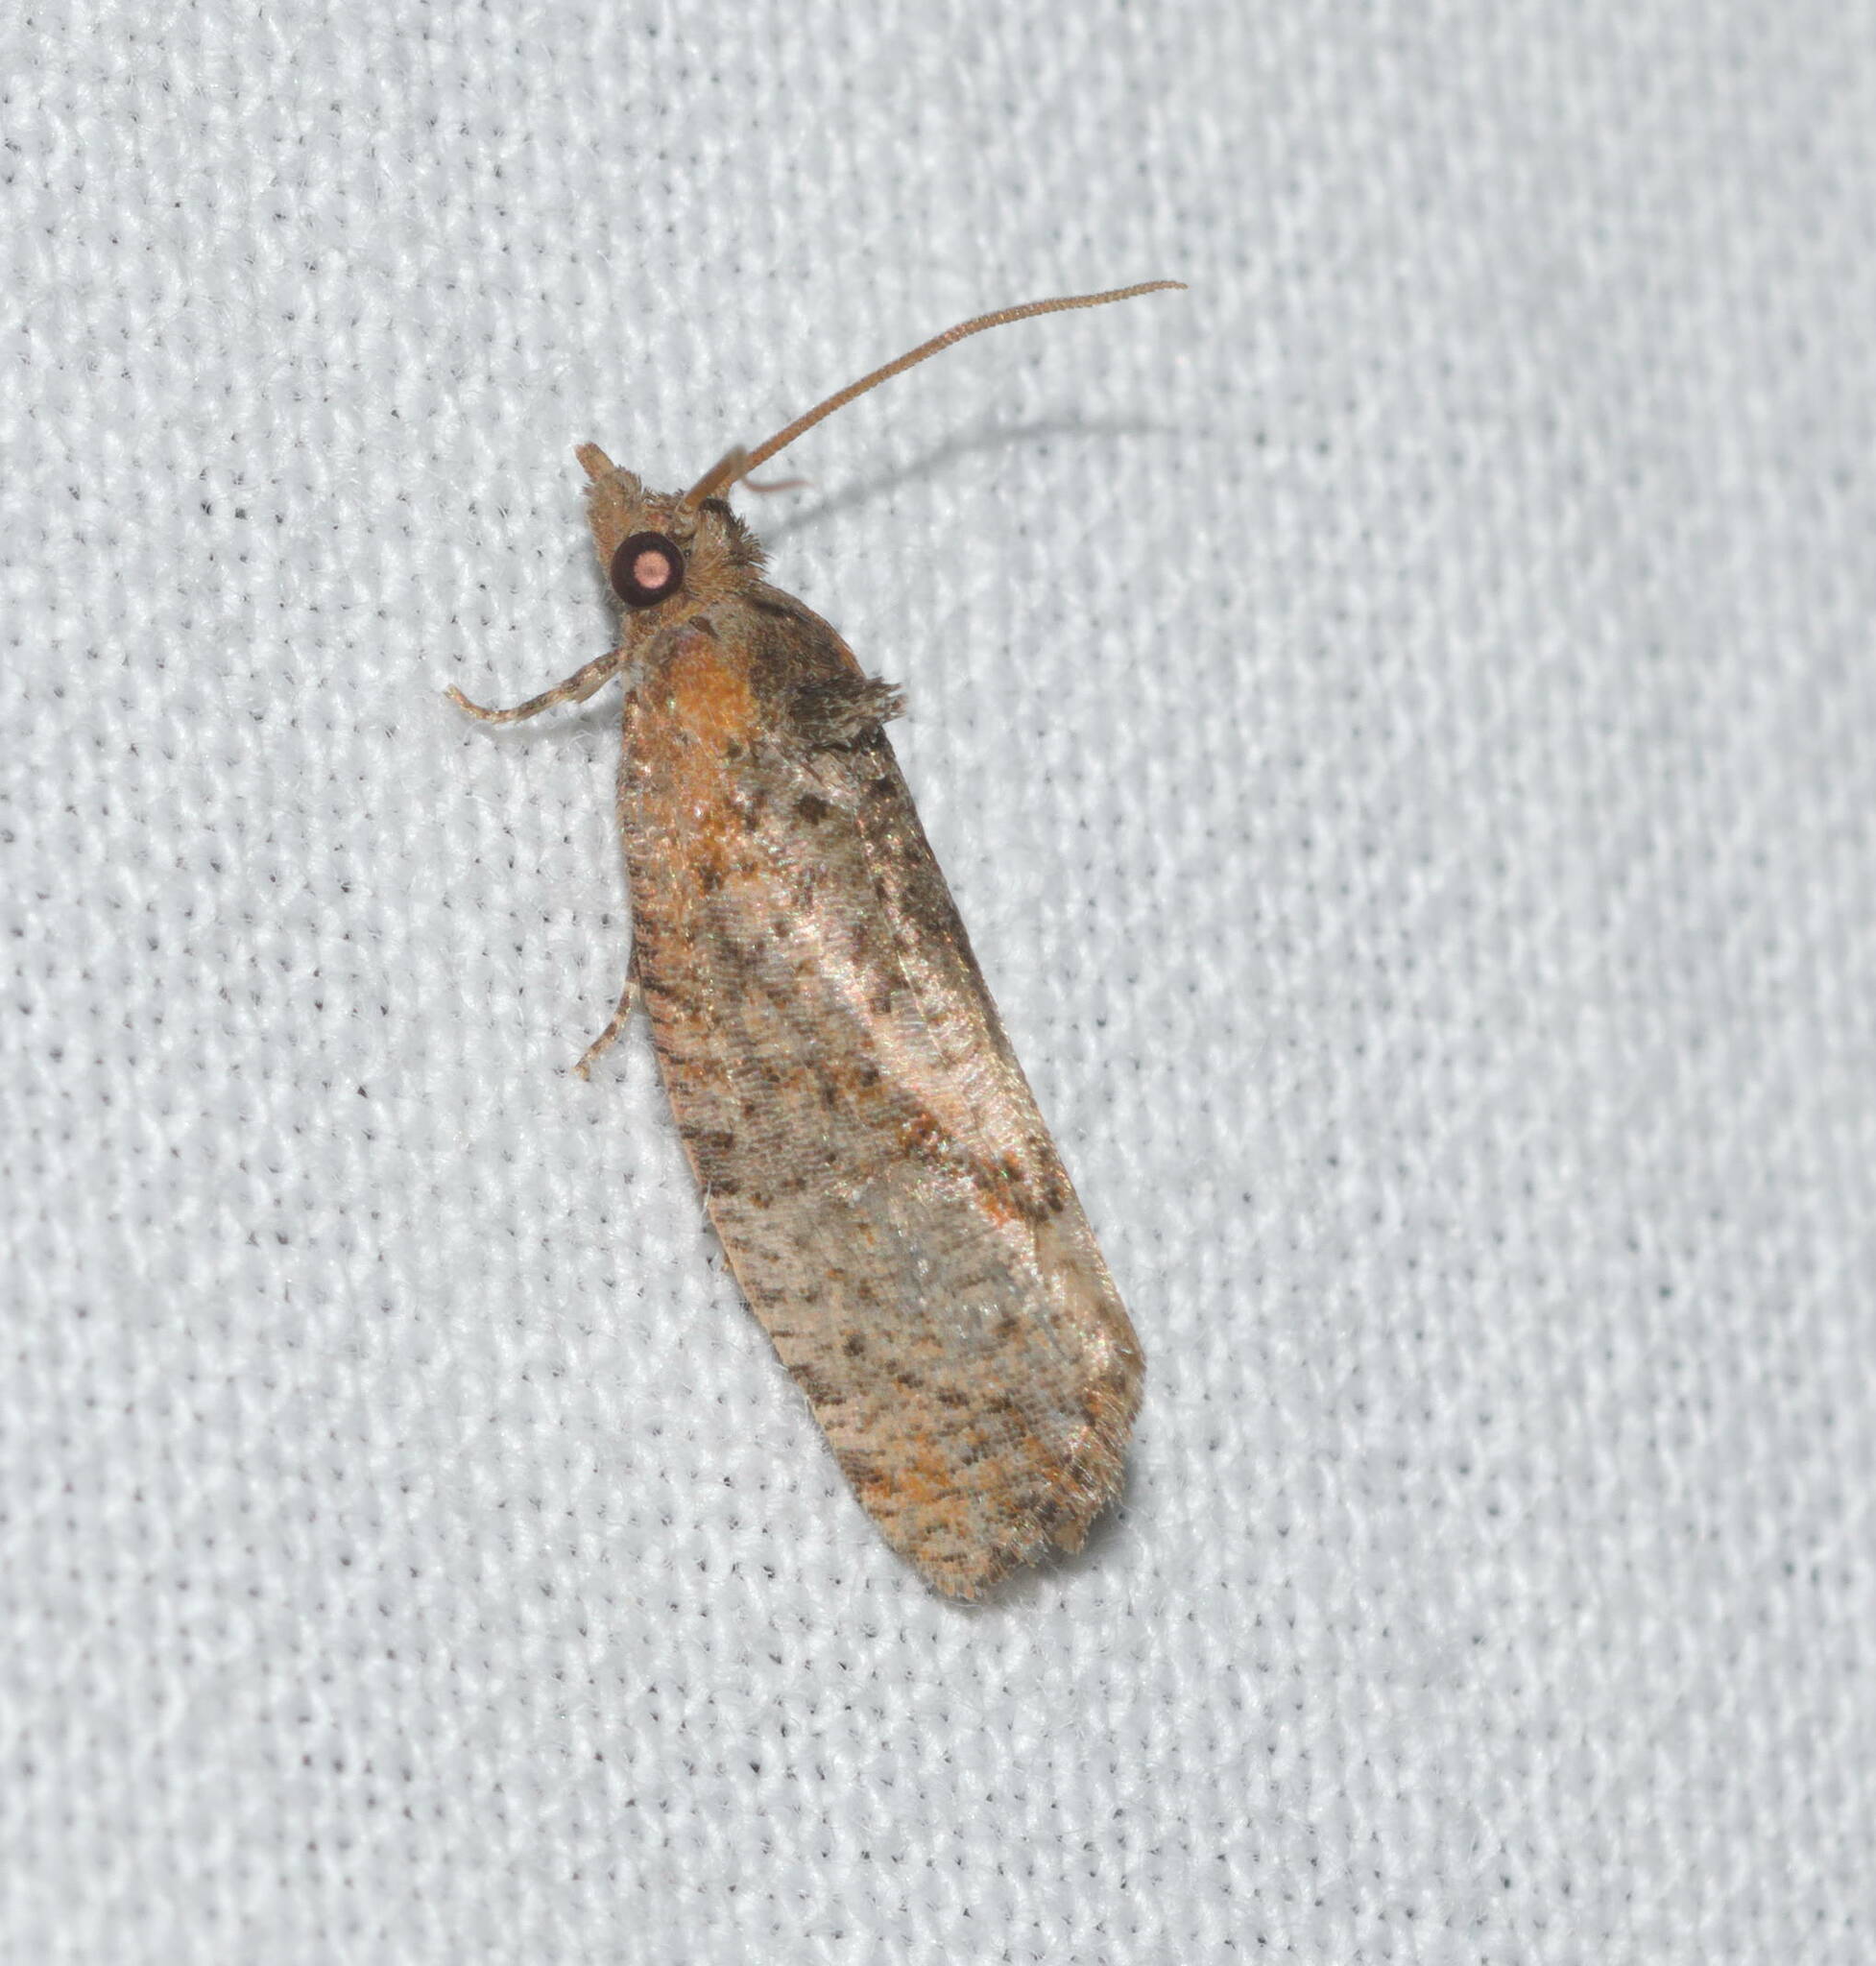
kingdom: Animalia
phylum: Arthropoda
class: Insecta
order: Lepidoptera
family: Tortricidae
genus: Cryptophlebia
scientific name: Cryptophlebia illepida
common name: Moth
